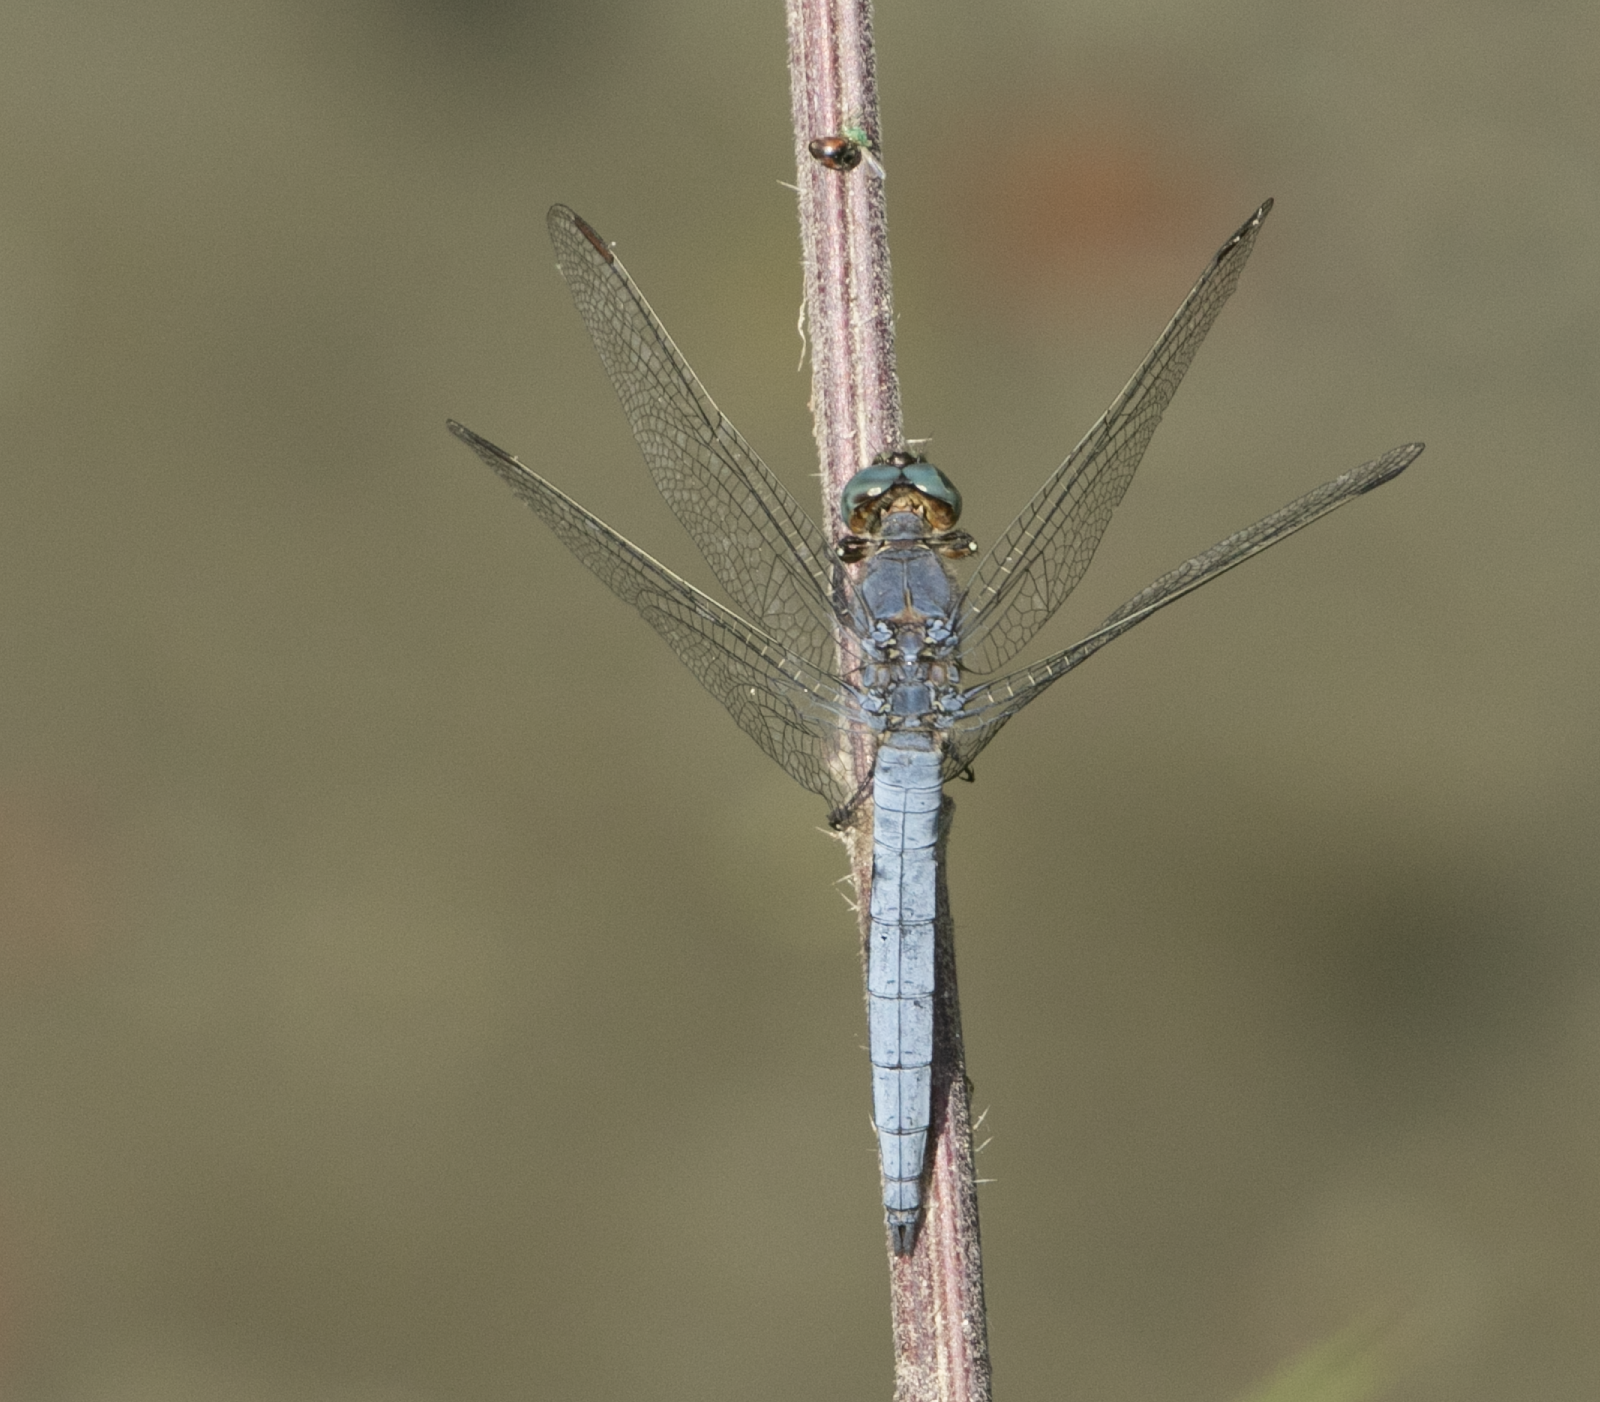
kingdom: Animalia
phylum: Arthropoda
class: Insecta
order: Odonata
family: Libellulidae
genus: Orthetrum
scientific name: Orthetrum coerulescens
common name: Keeled skimmer
